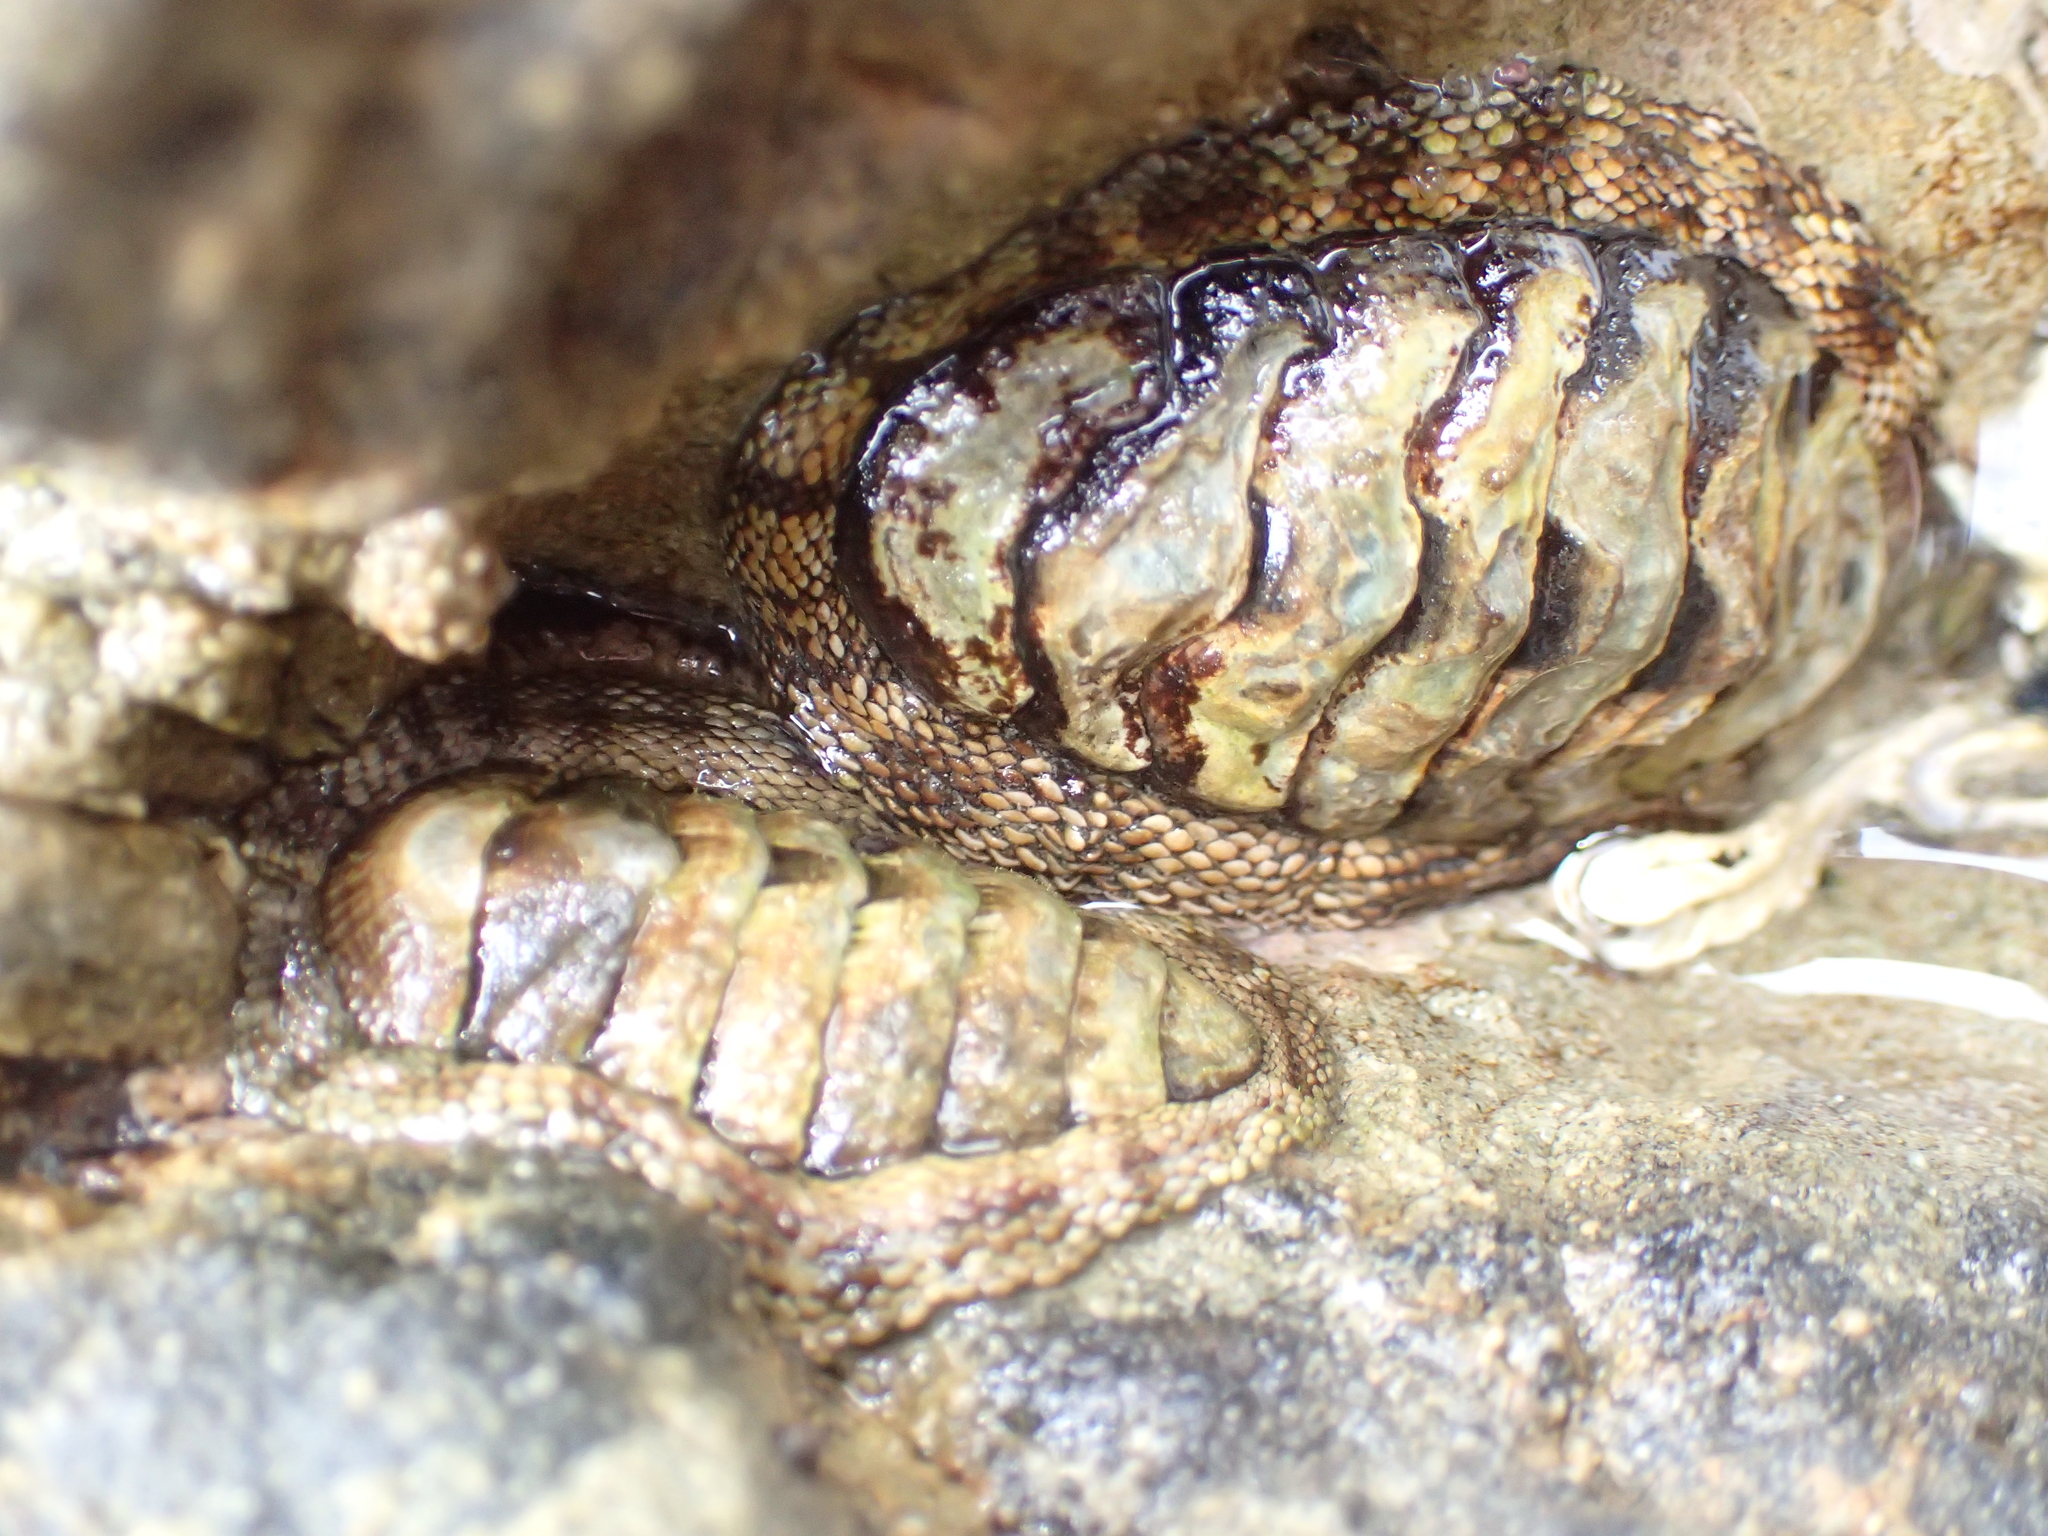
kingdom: Animalia
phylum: Mollusca
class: Polyplacophora
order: Chitonida
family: Chitonidae
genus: Sypharochiton
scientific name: Sypharochiton pelliserpentis
